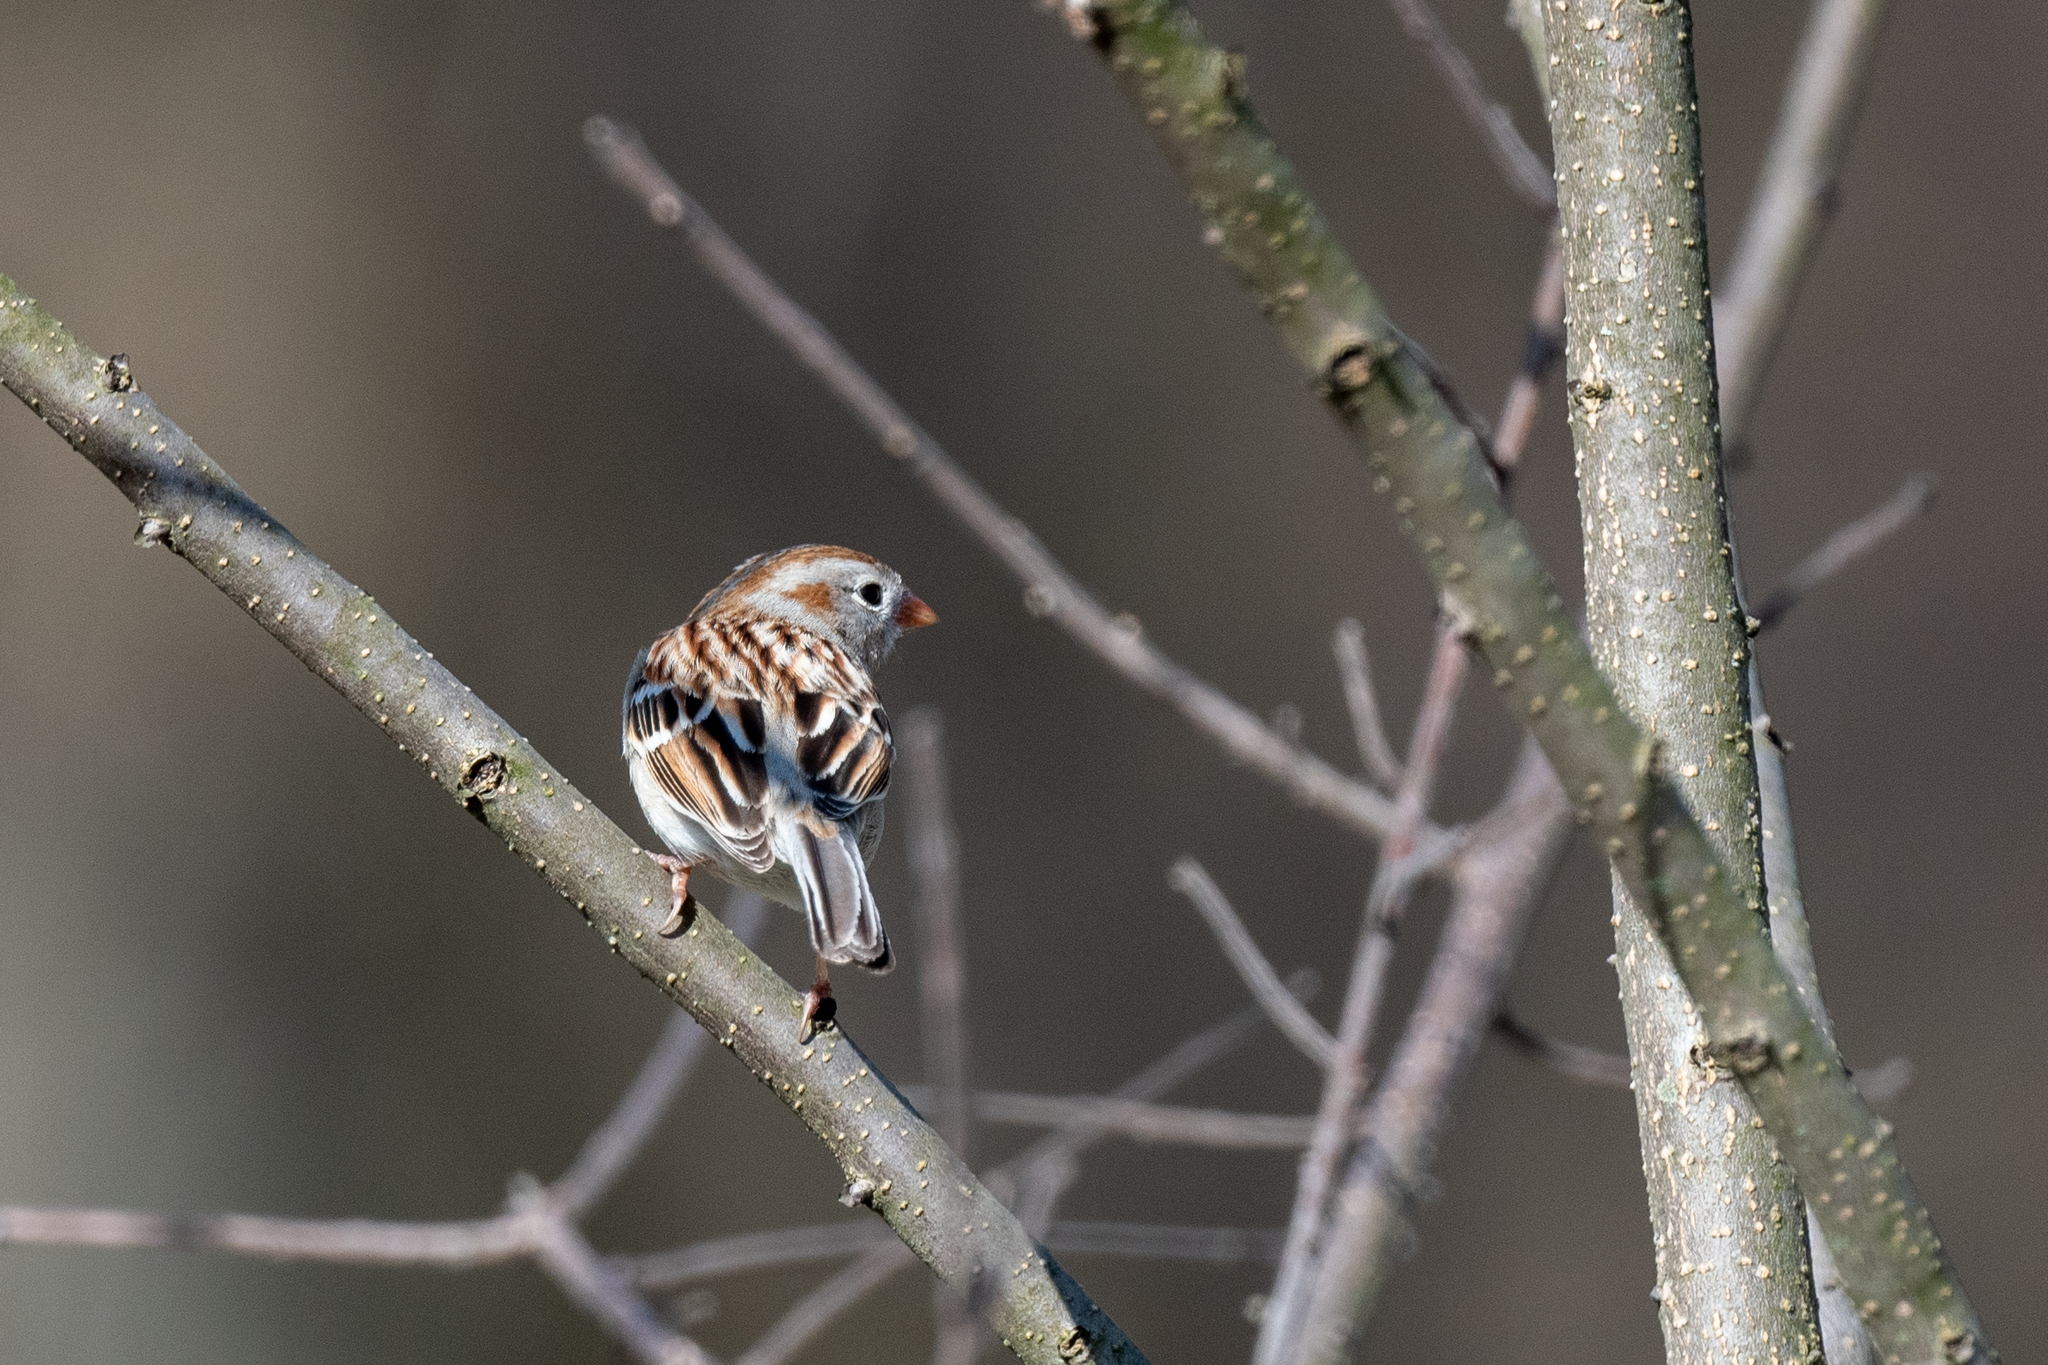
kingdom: Animalia
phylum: Chordata
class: Aves
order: Passeriformes
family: Passerellidae
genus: Spizella
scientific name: Spizella pusilla
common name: Field sparrow
